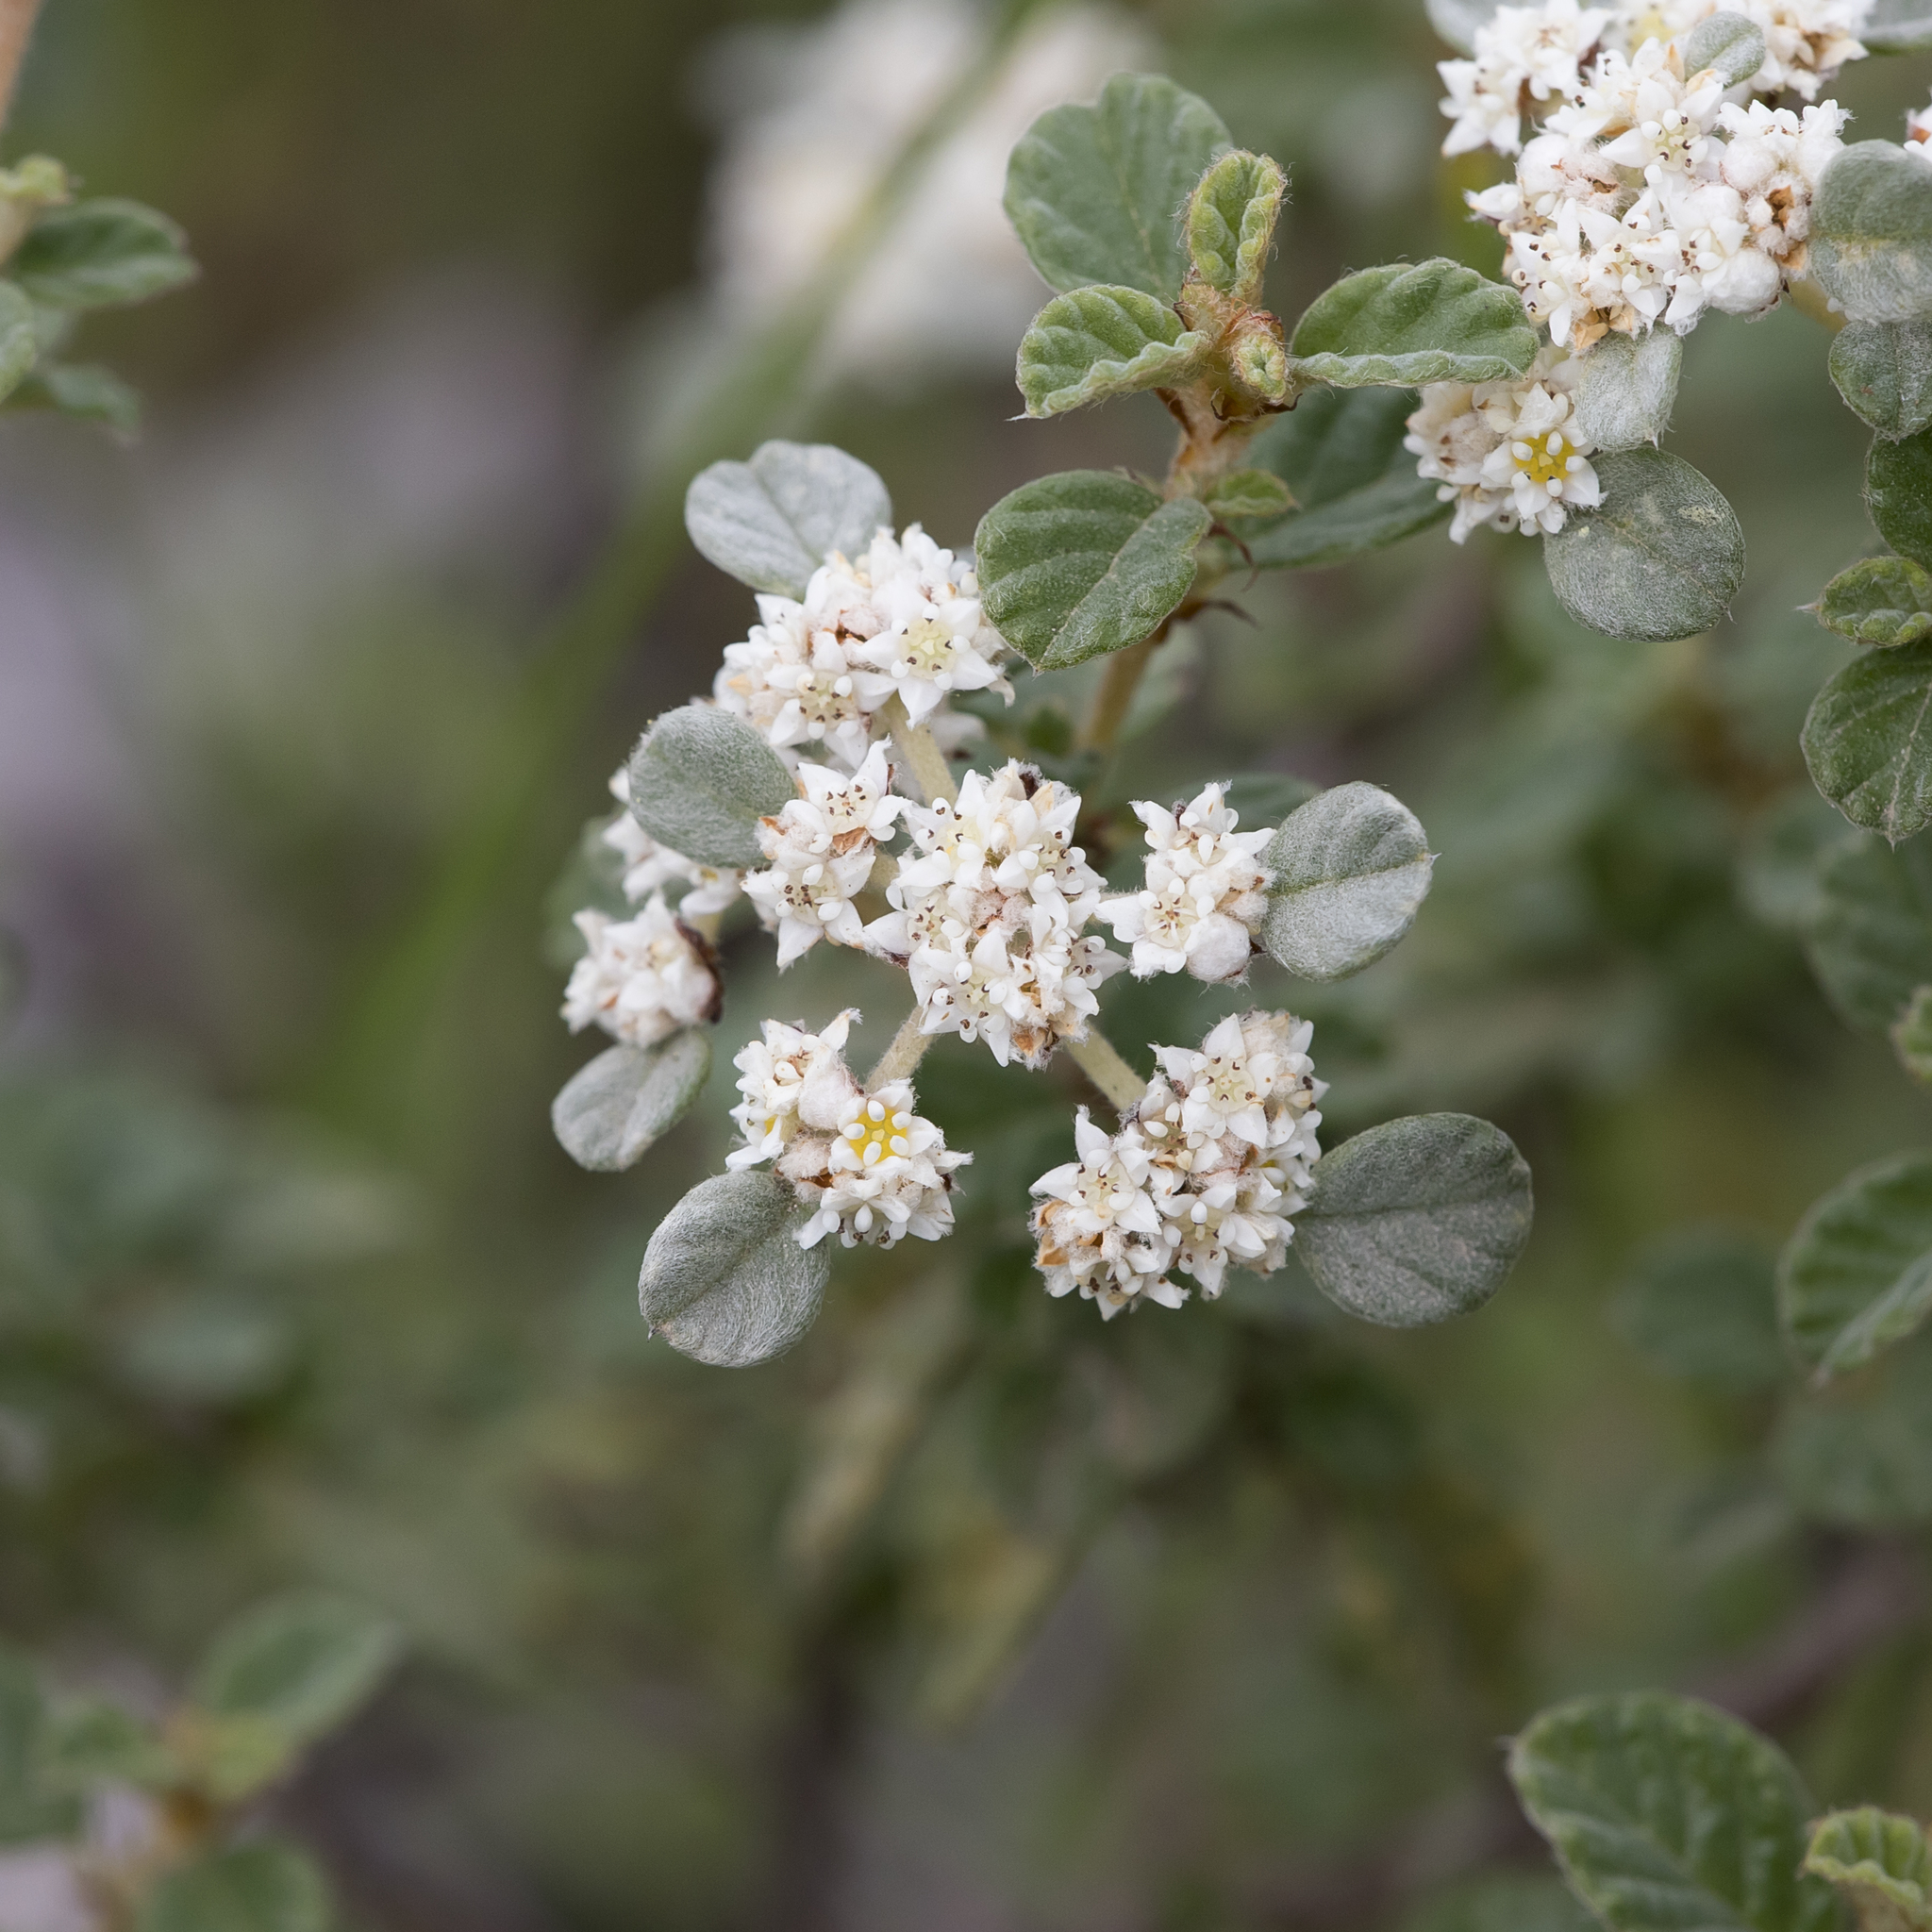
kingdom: Plantae
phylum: Tracheophyta
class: Magnoliopsida
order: Rosales
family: Rhamnaceae
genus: Spyridium
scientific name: Spyridium parvifolium
